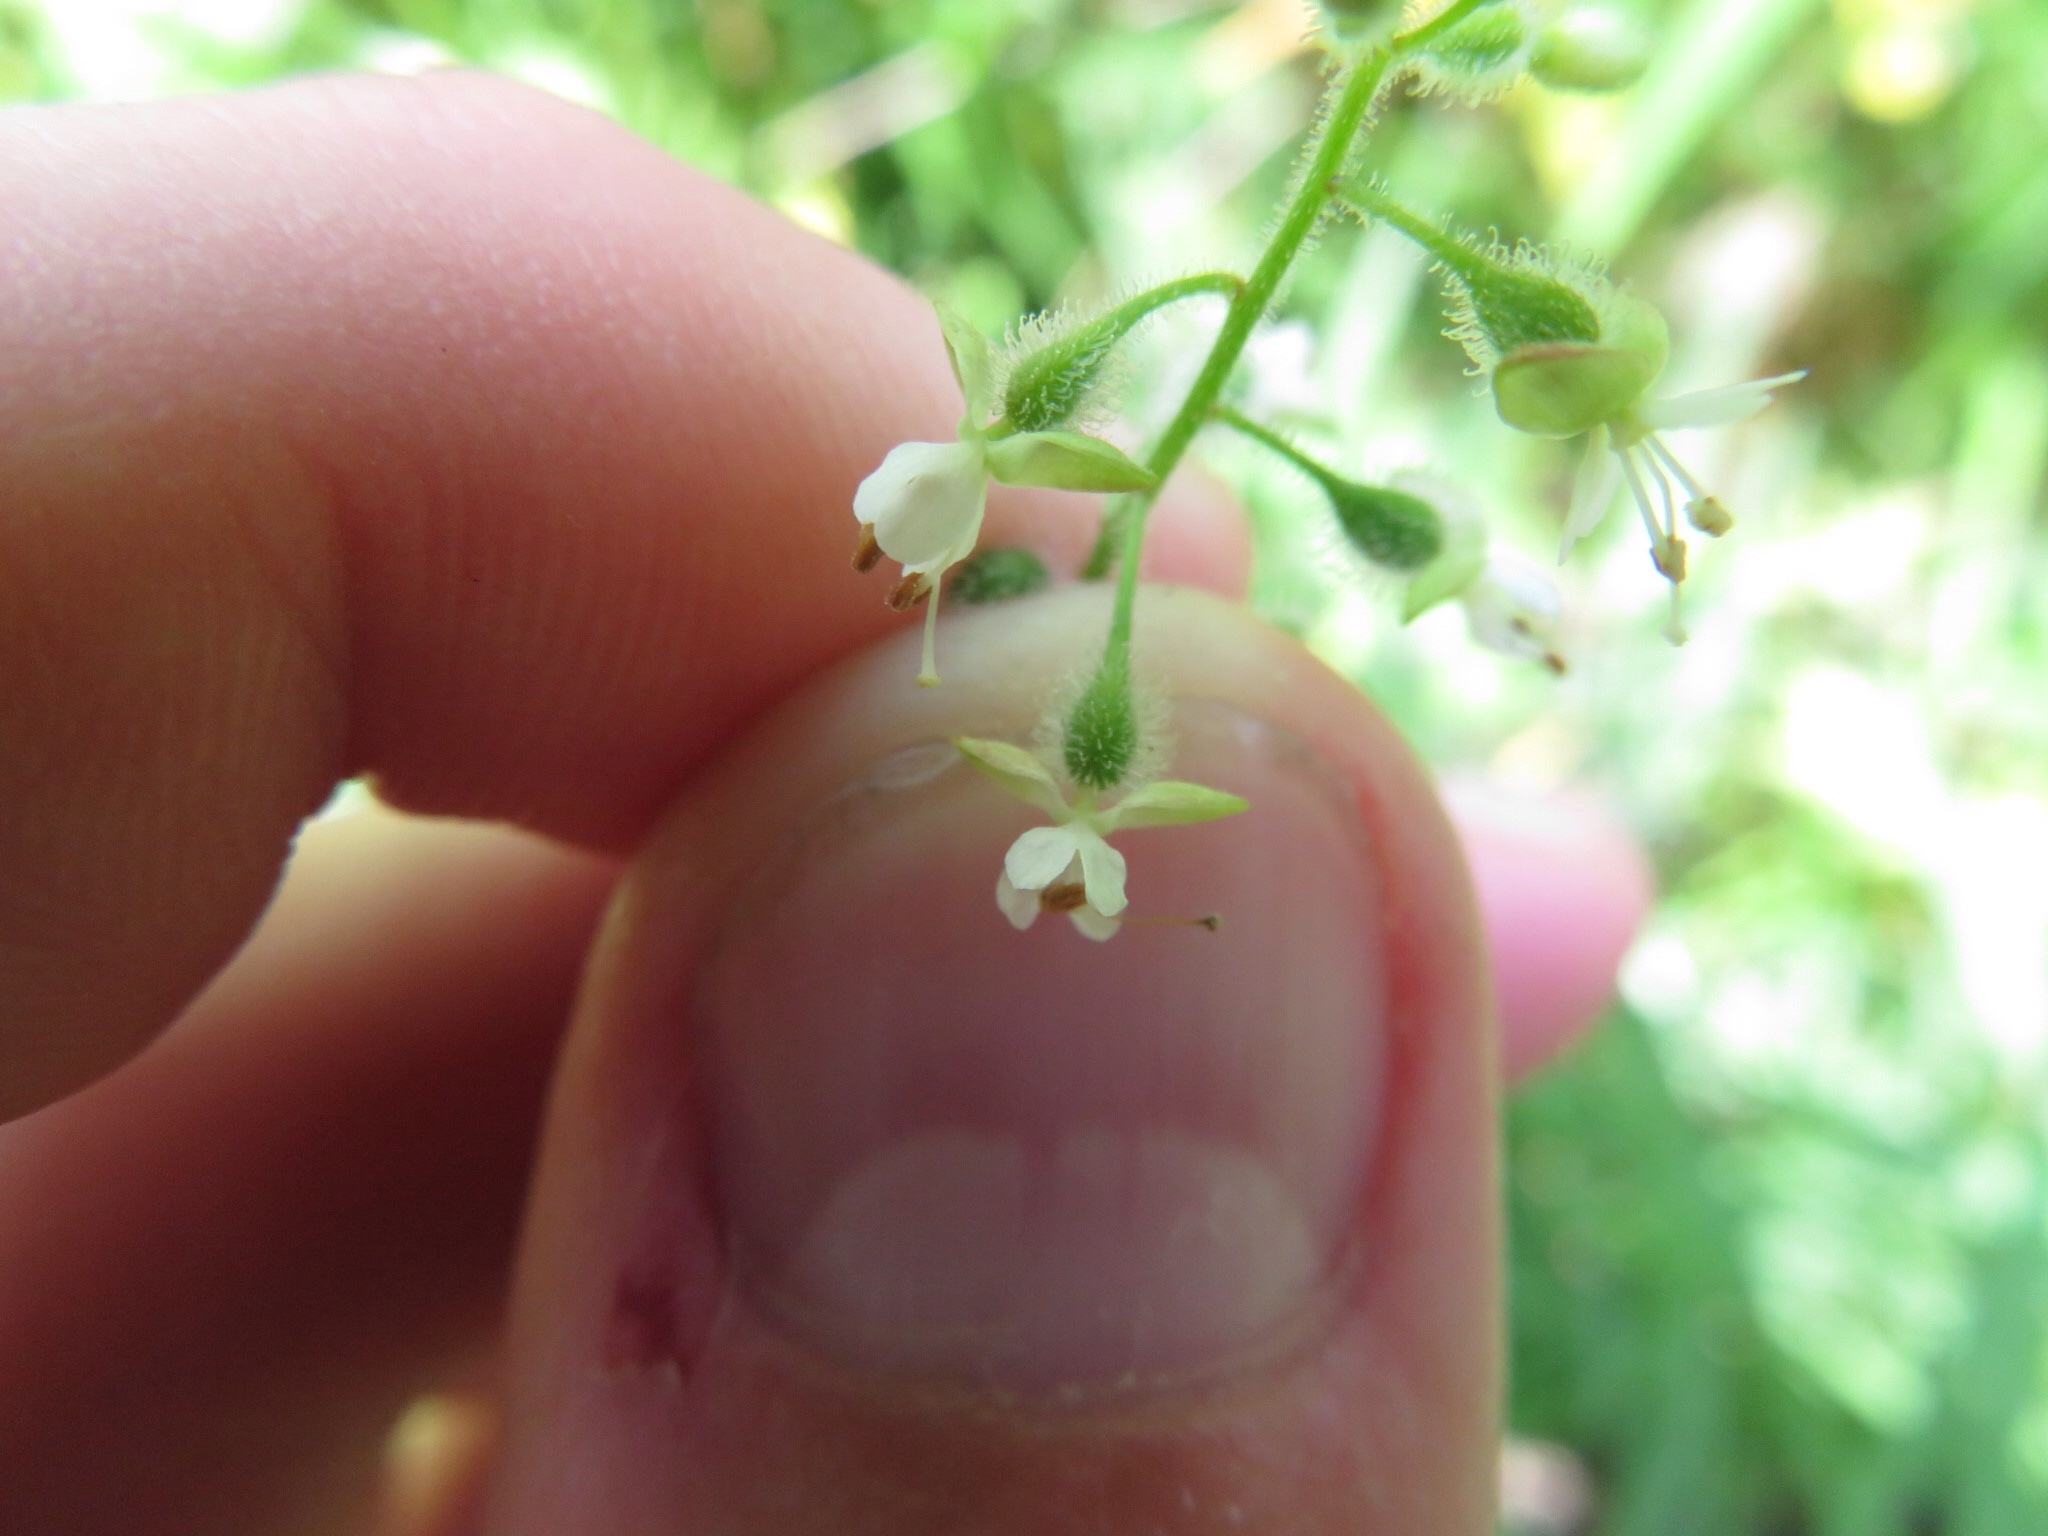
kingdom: Plantae
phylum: Tracheophyta
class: Magnoliopsida
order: Myrtales
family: Onagraceae
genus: Circaea
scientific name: Circaea canadensis
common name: Broad-leaved enchanter's nightshade
